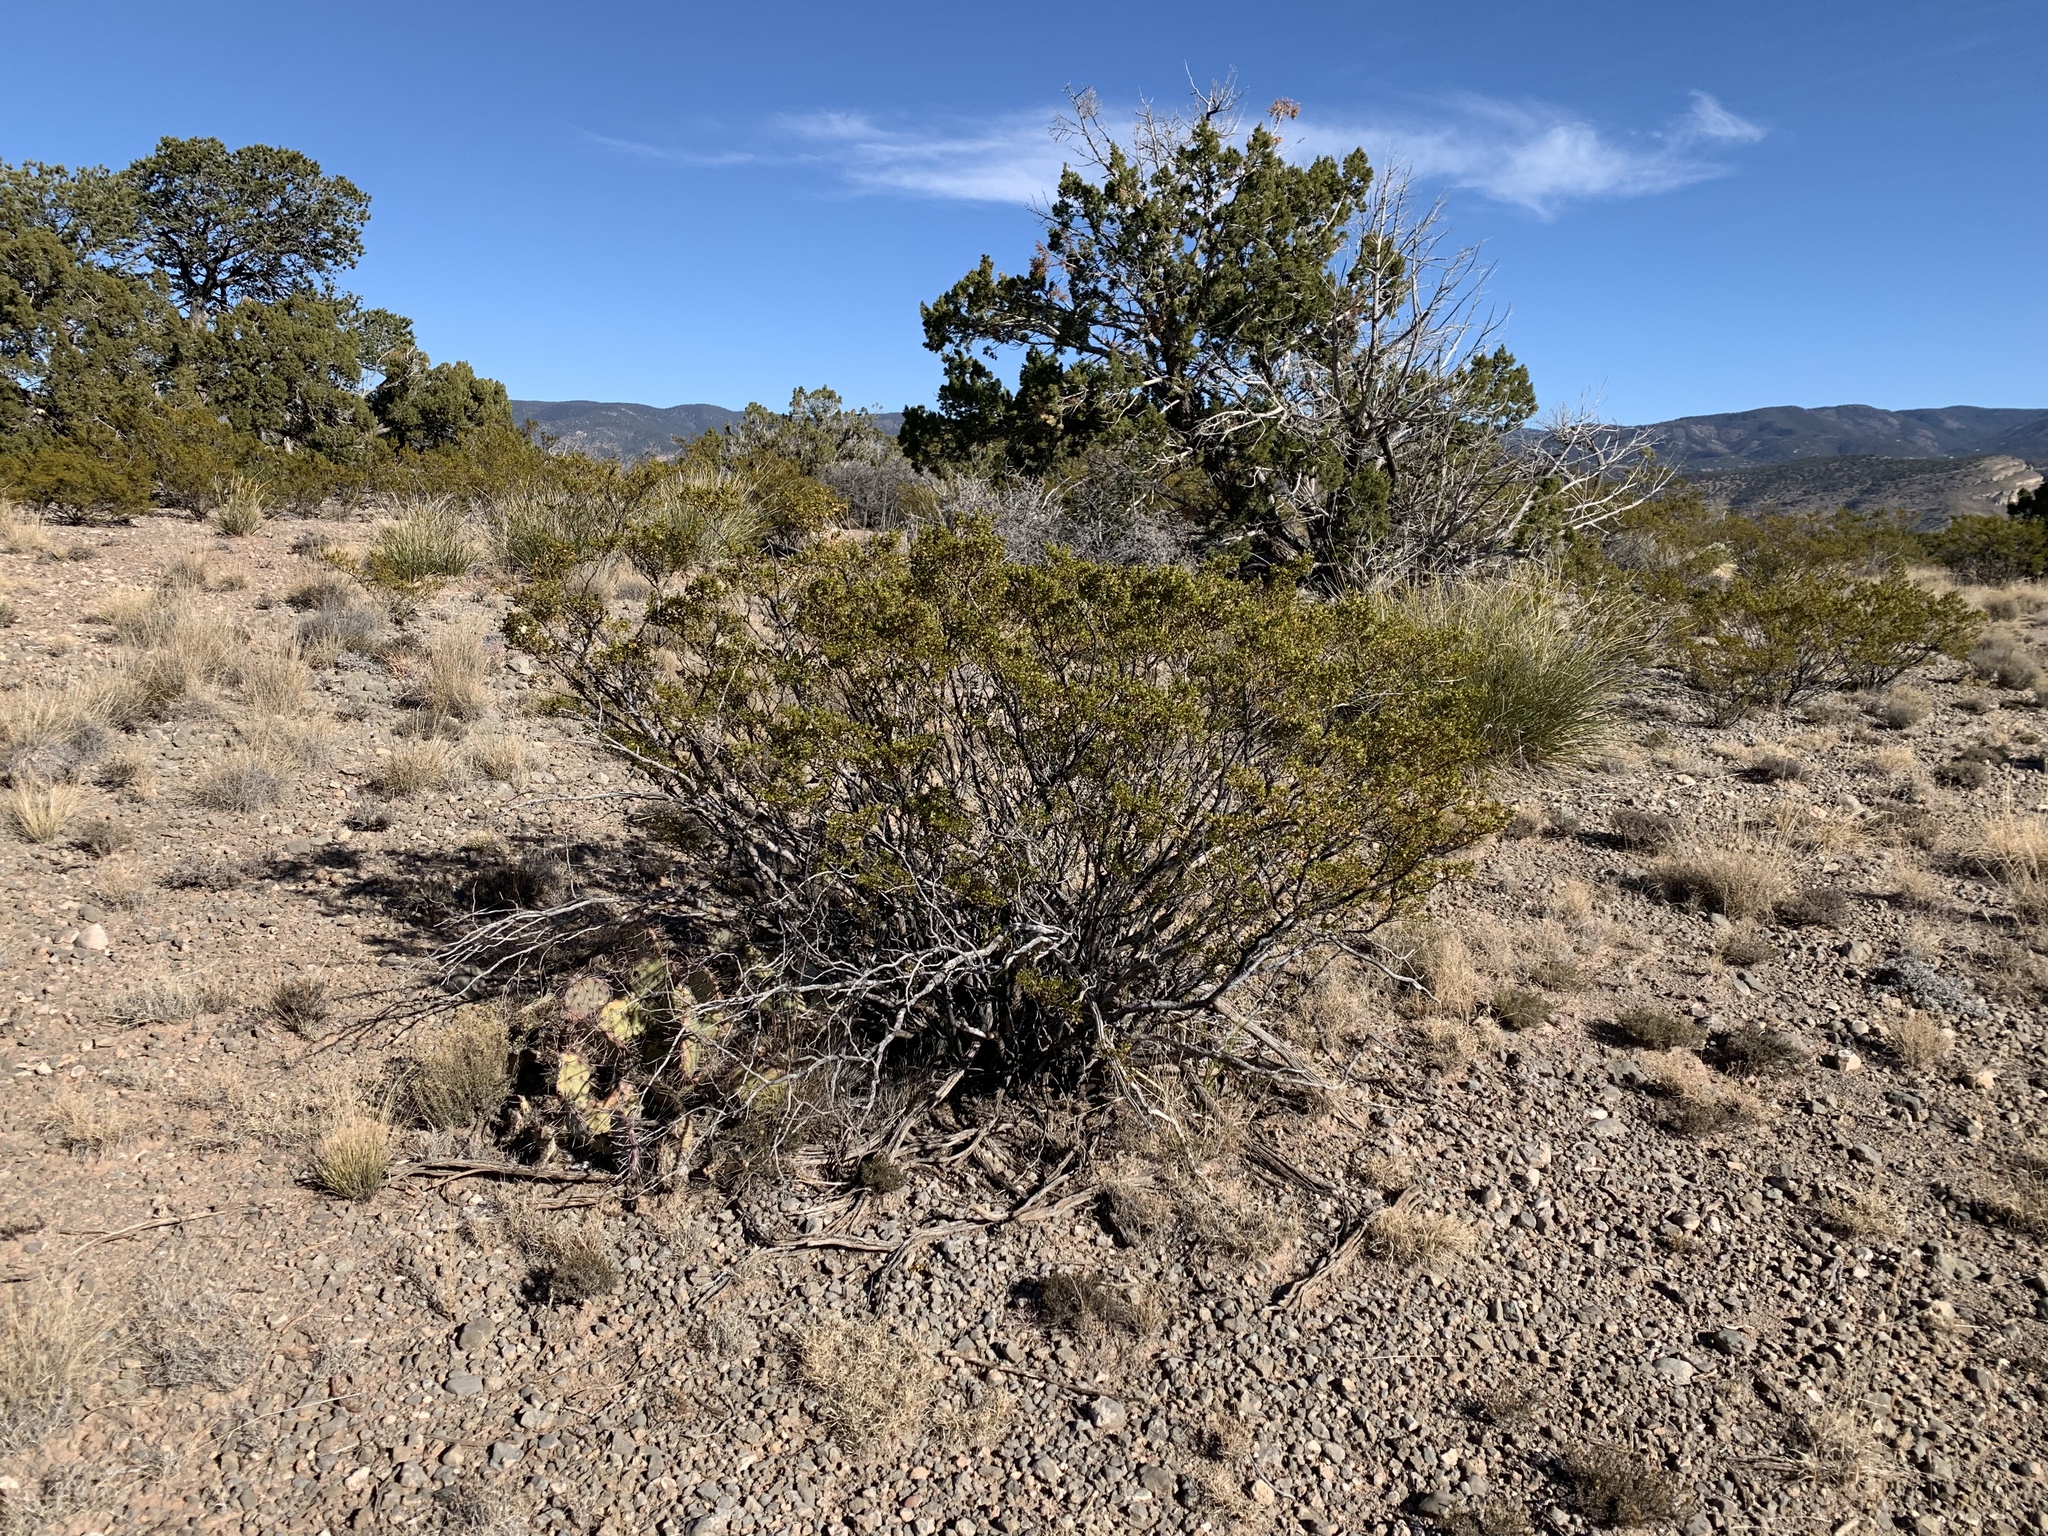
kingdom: Plantae
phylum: Tracheophyta
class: Magnoliopsida
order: Zygophyllales
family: Zygophyllaceae
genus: Larrea
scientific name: Larrea tridentata
